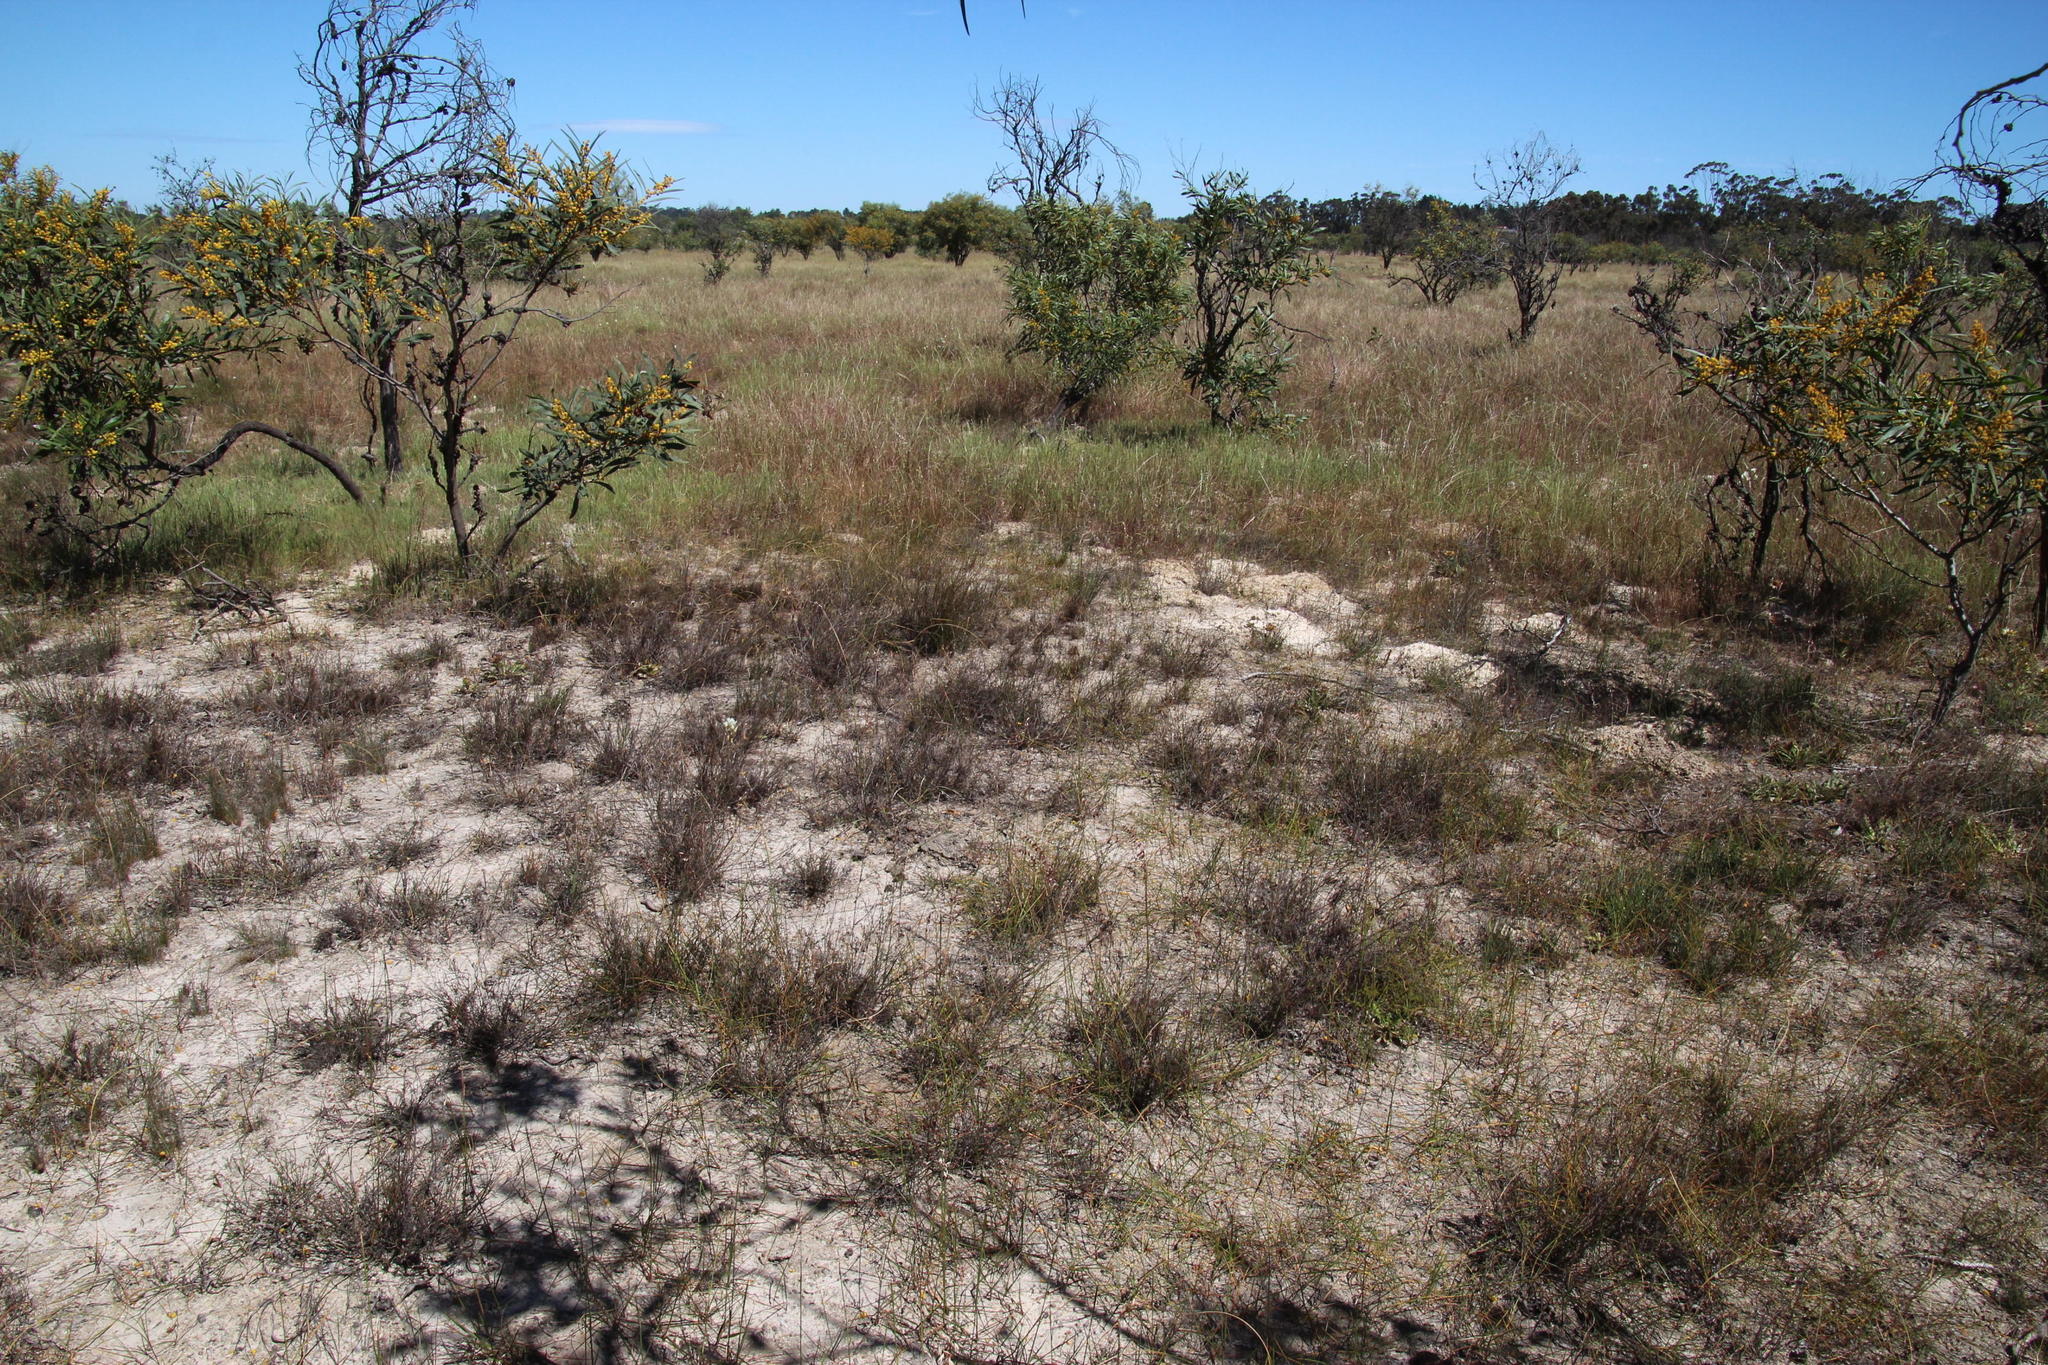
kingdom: Plantae
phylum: Tracheophyta
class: Liliopsida
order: Poales
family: Restionaceae
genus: Elegia
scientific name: Elegia verreauxii
